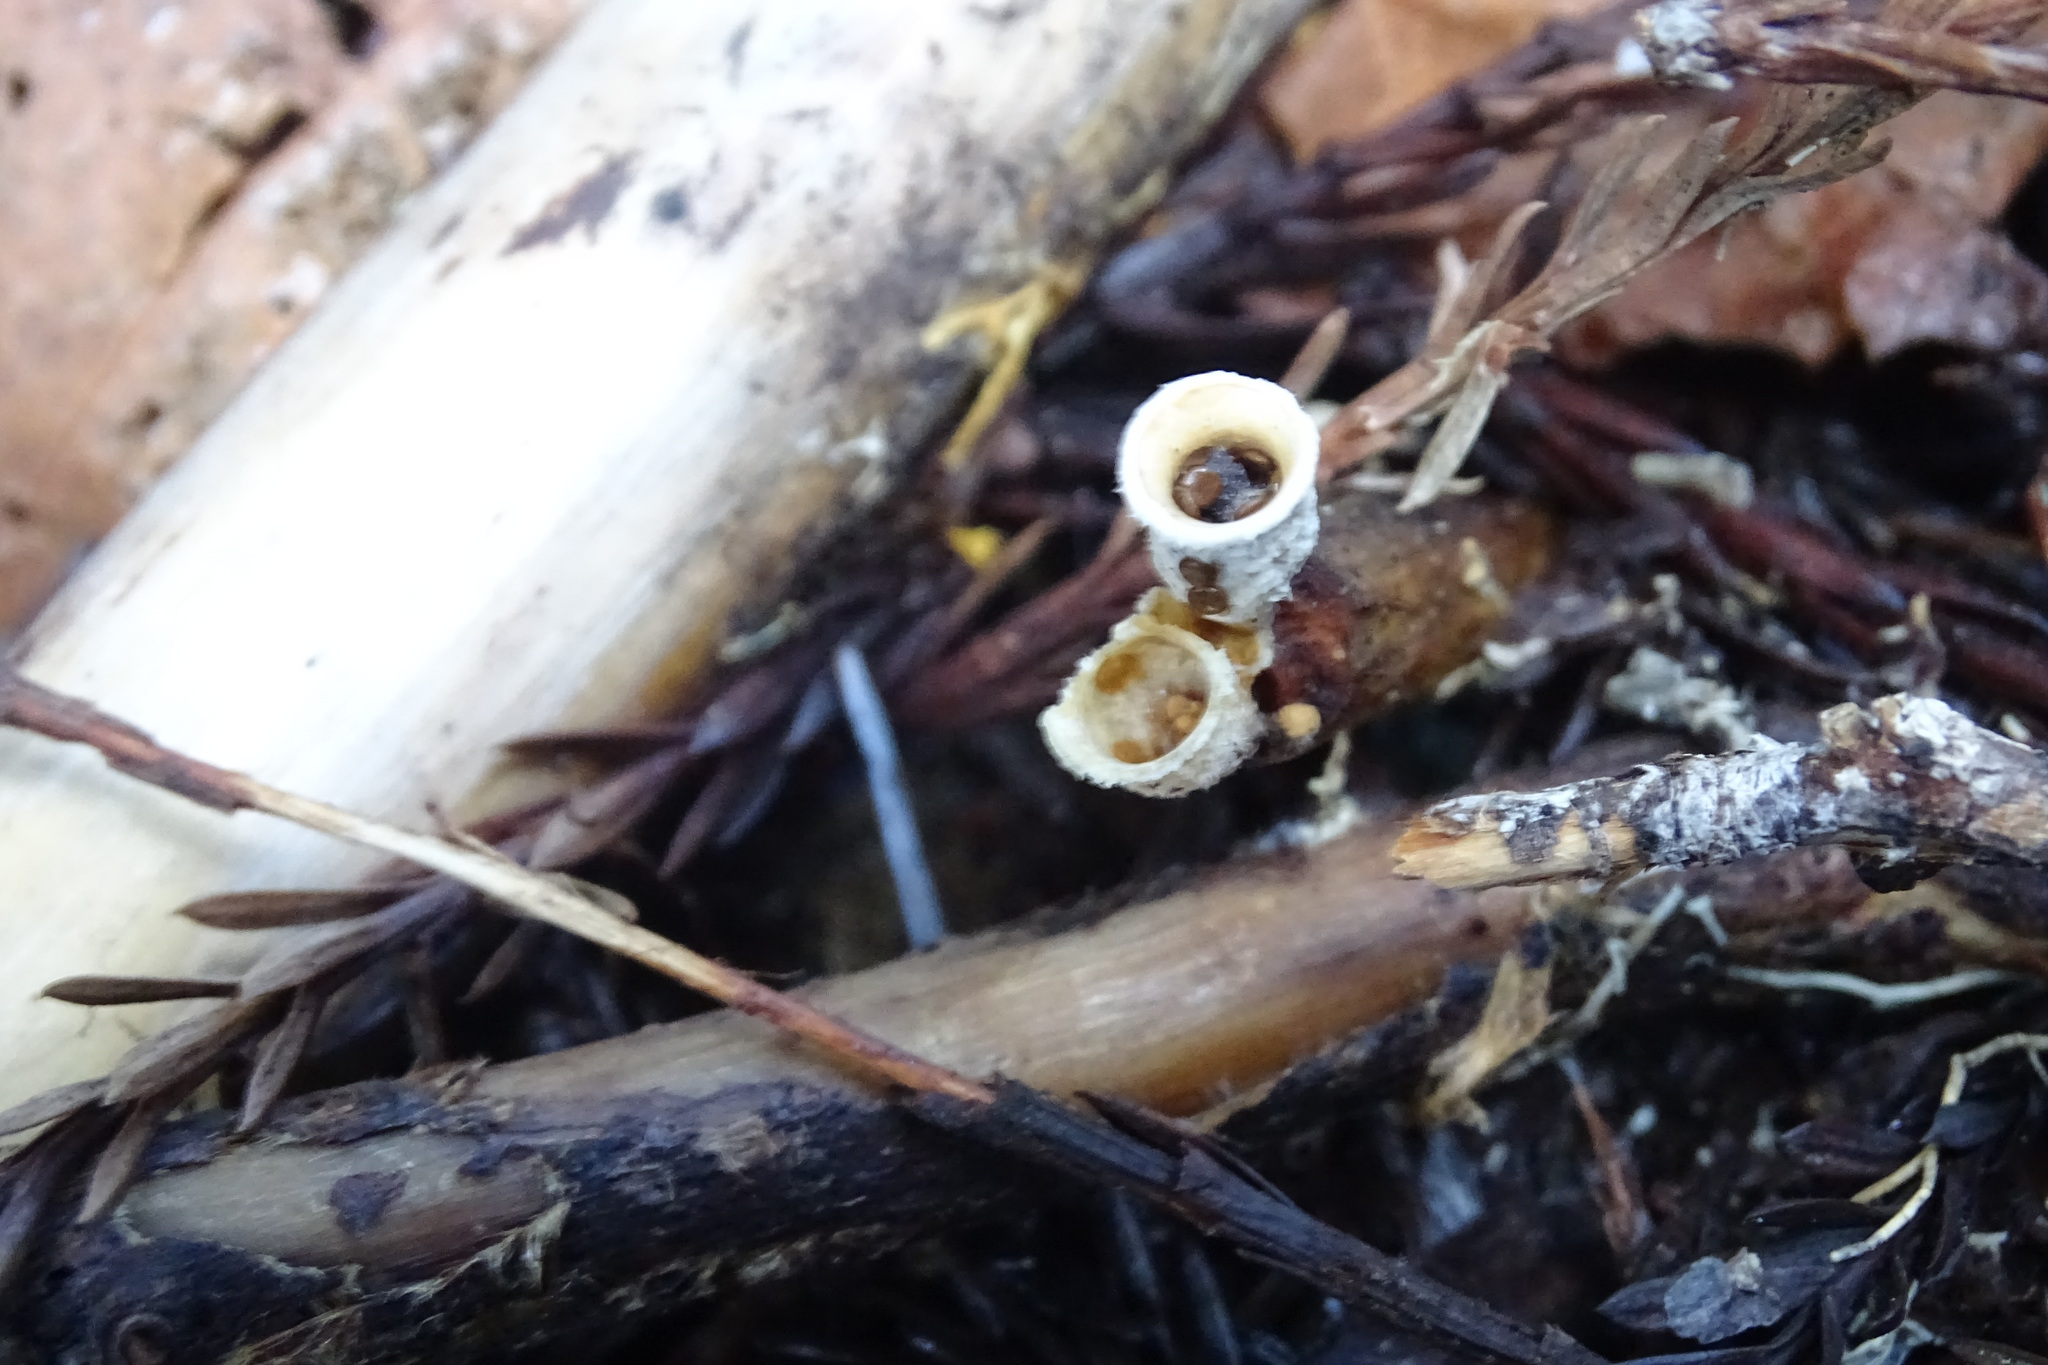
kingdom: Fungi
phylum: Basidiomycota
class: Agaricomycetes
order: Agaricales
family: Agaricaceae
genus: Nidula
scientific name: Nidula niveotomentosa
